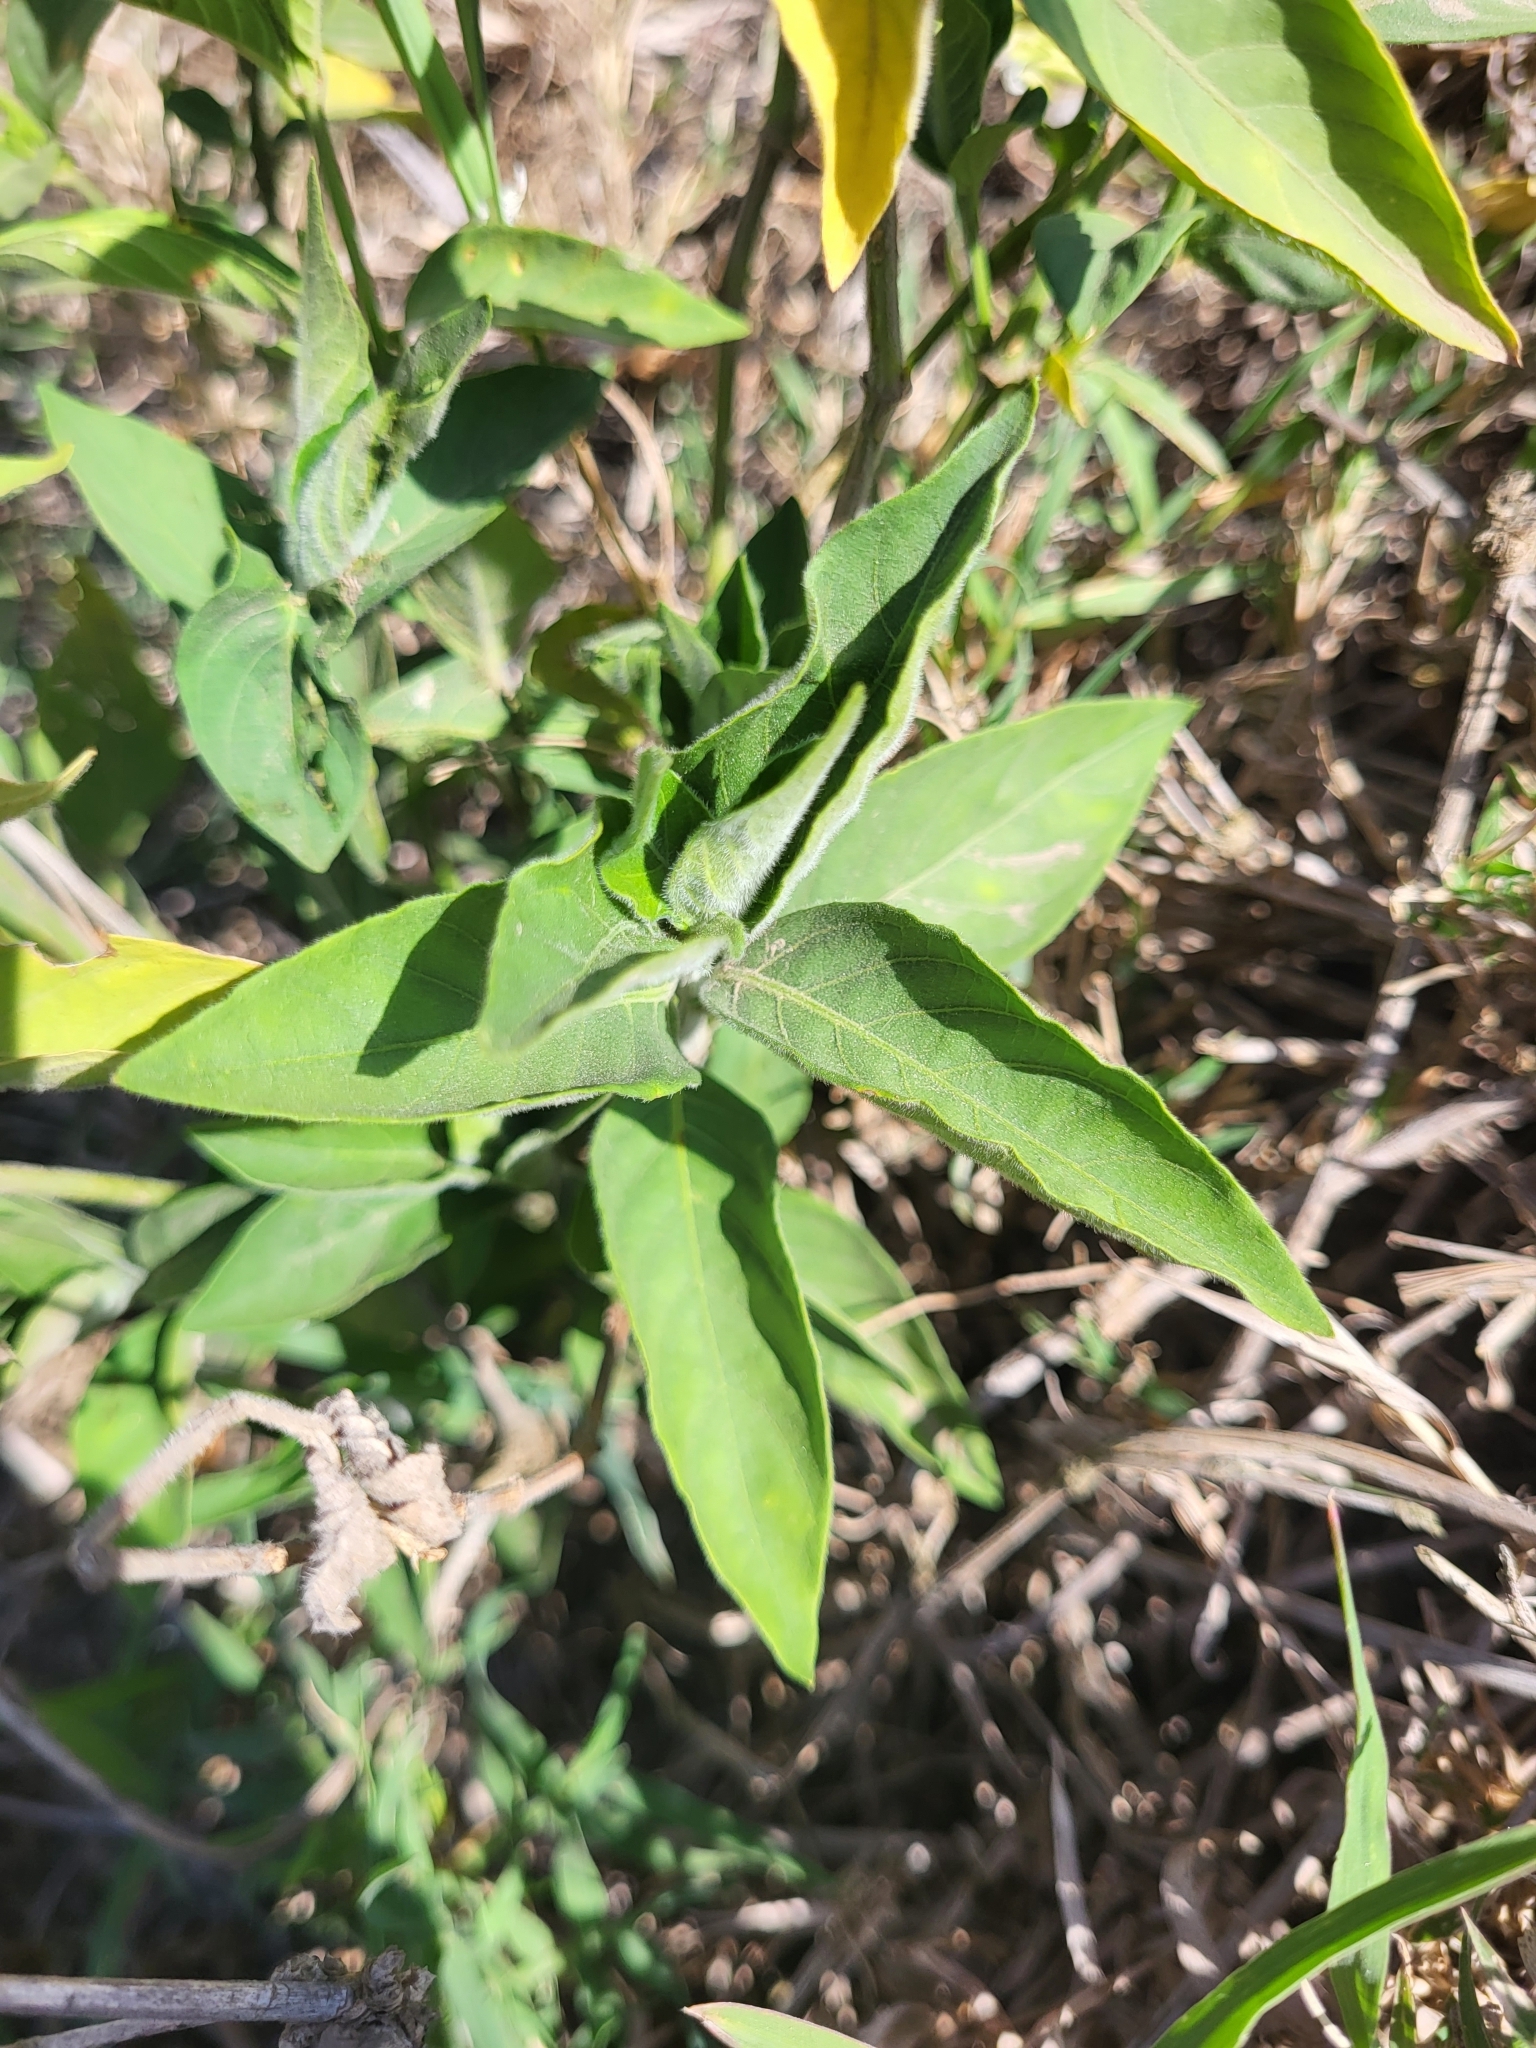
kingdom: Plantae
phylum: Tracheophyta
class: Magnoliopsida
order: Lamiales
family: Acanthaceae
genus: Hypoestes
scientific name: Hypoestes forskaolii
